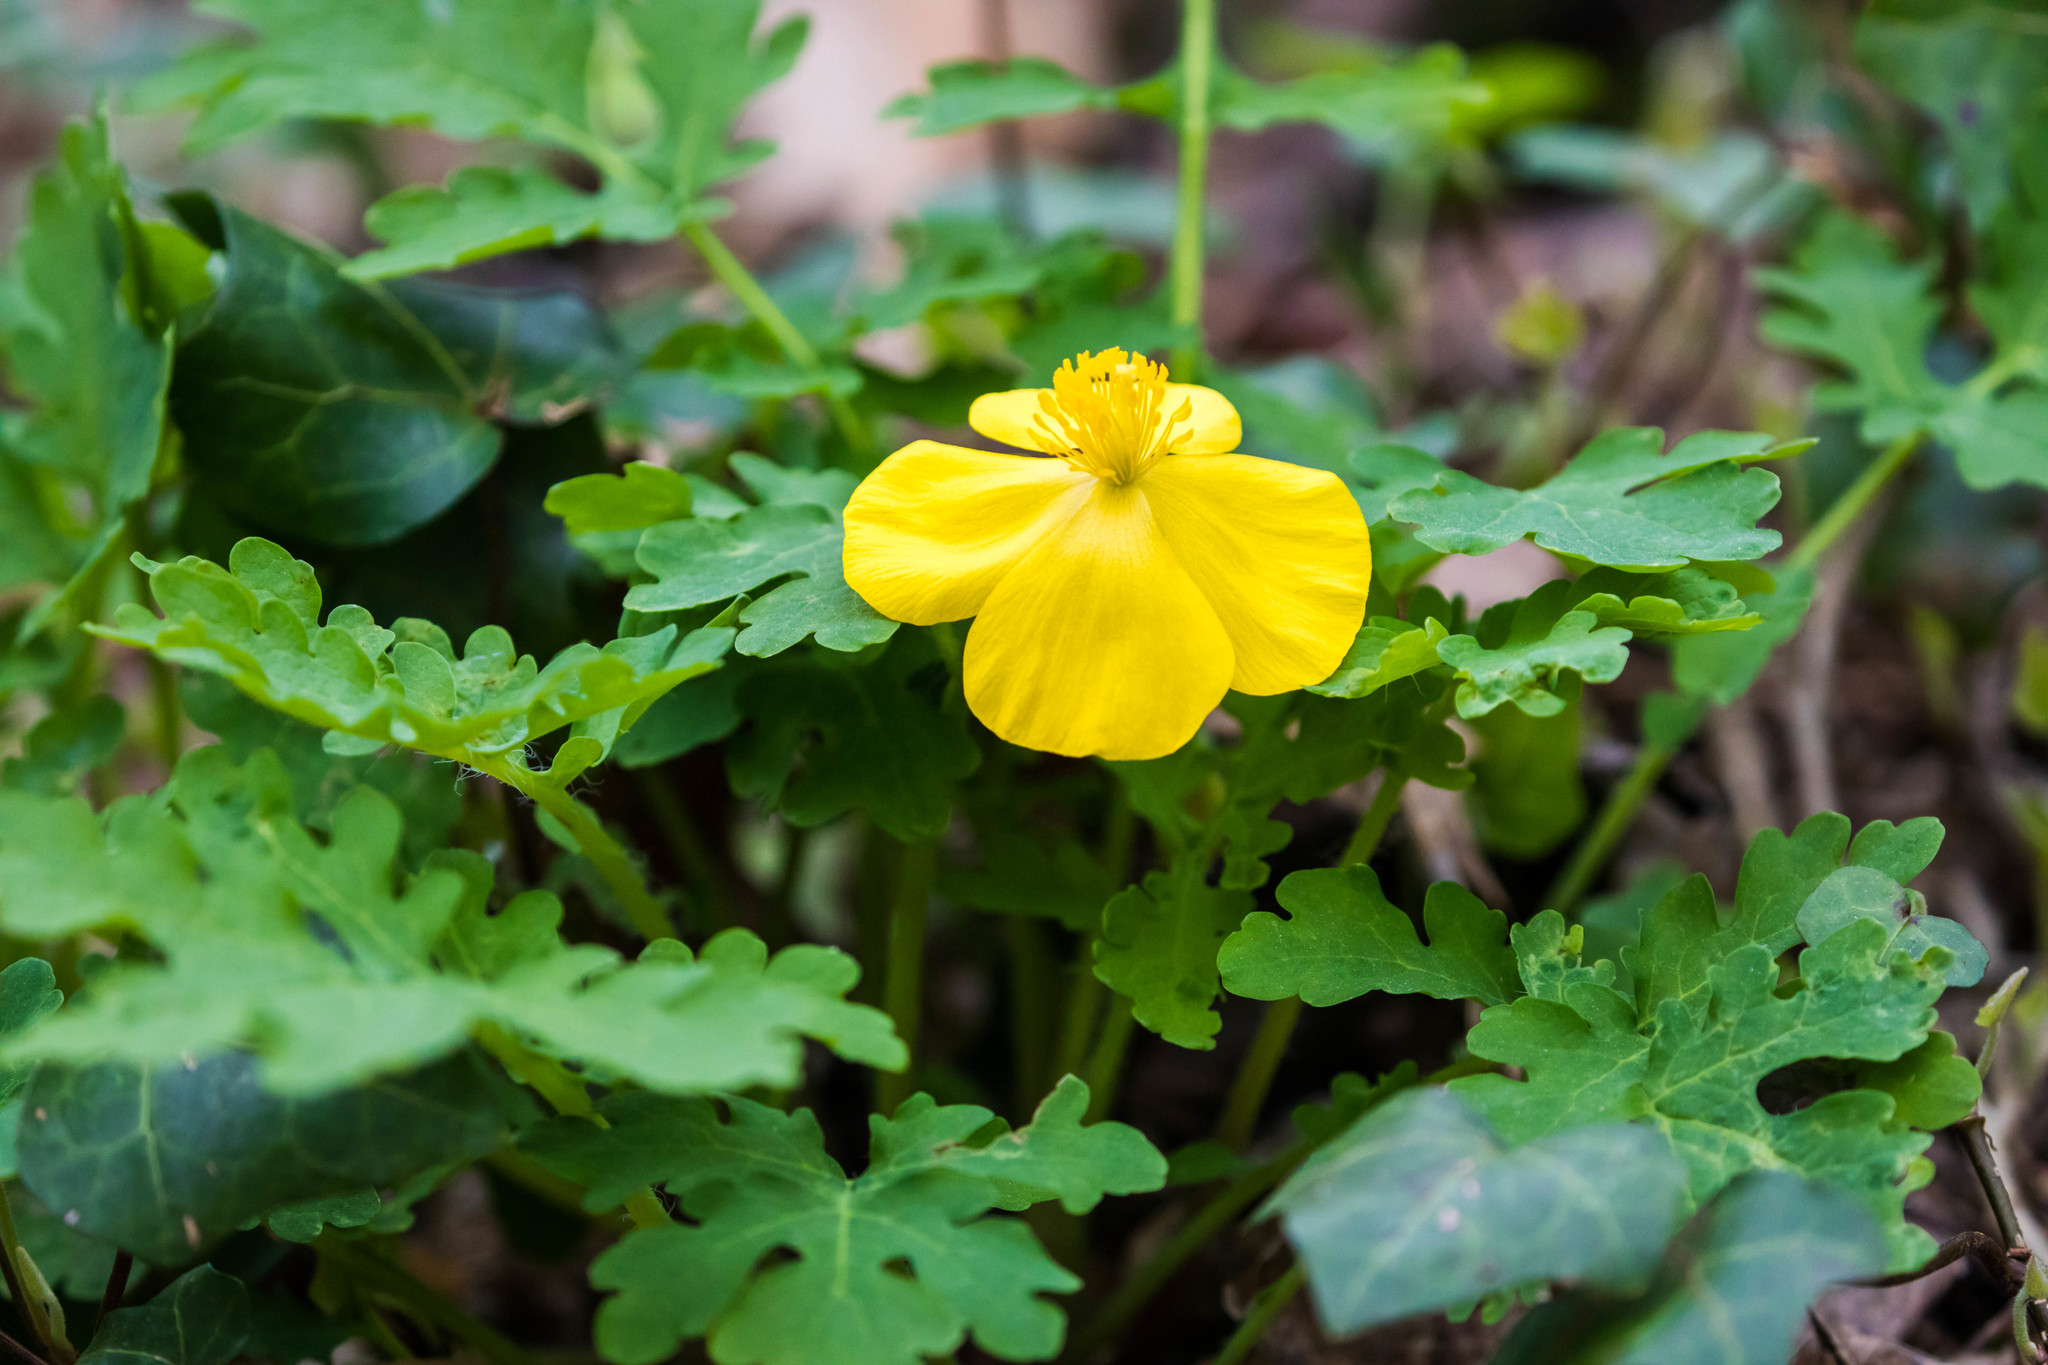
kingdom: Plantae
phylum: Tracheophyta
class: Magnoliopsida
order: Ranunculales
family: Papaveraceae
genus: Stylophorum
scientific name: Stylophorum diphyllum
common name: Celandine poppy
